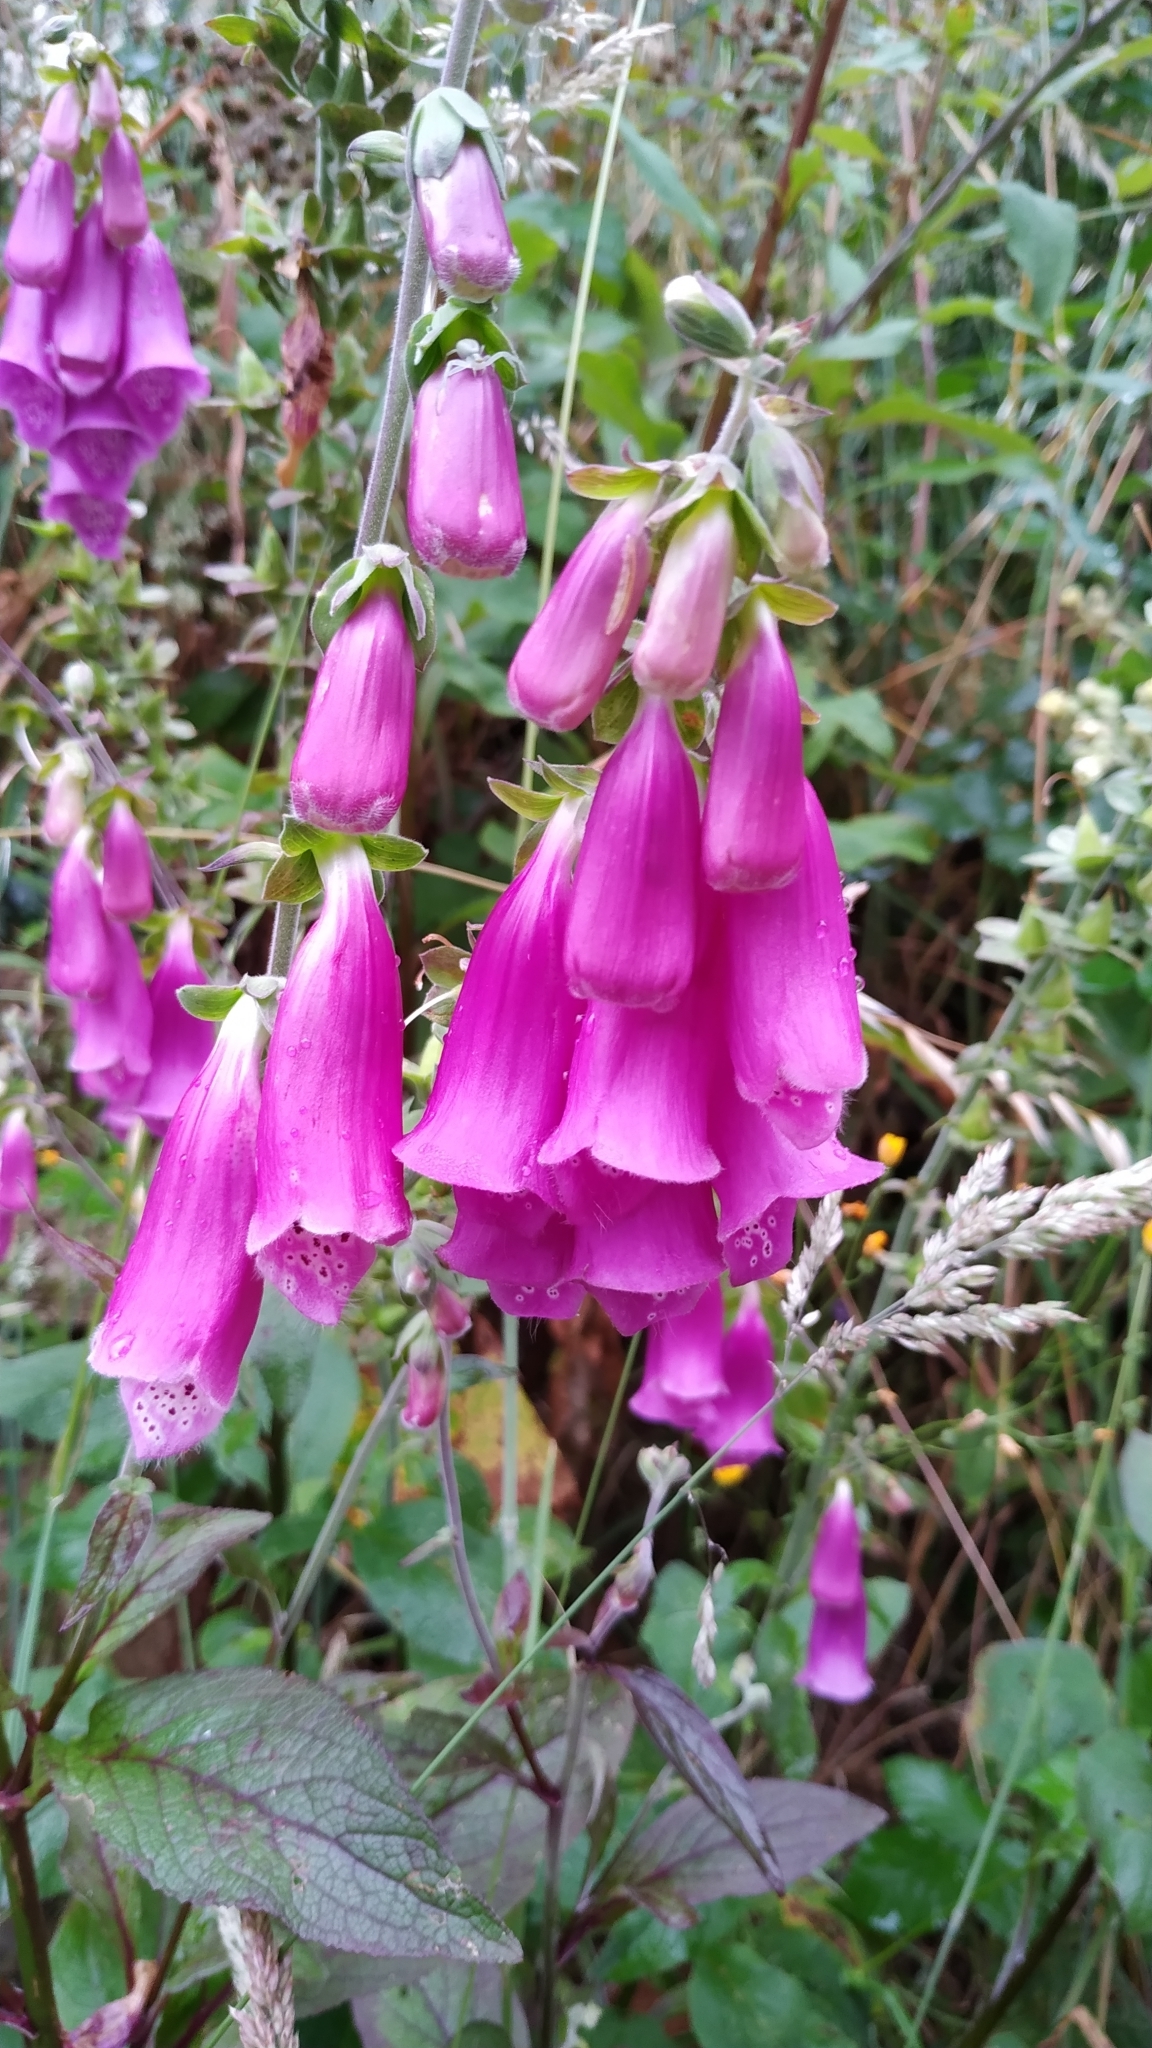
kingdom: Plantae
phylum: Tracheophyta
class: Magnoliopsida
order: Lamiales
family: Plantaginaceae
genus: Digitalis
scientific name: Digitalis purpurea
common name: Foxglove
